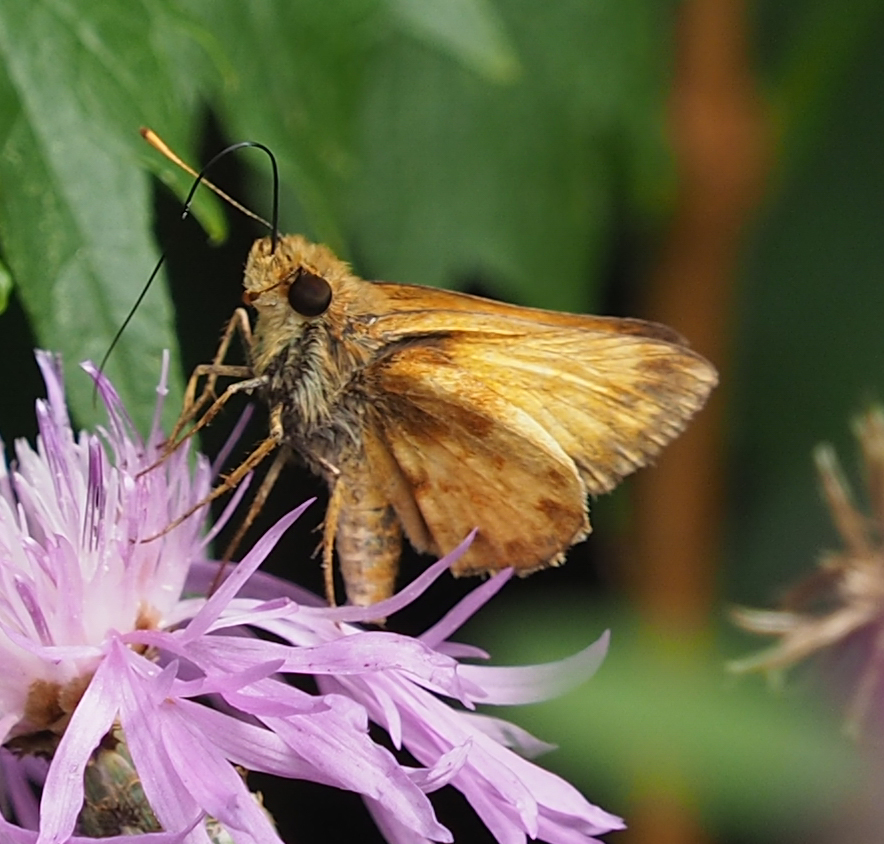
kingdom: Animalia
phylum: Arthropoda
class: Insecta
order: Lepidoptera
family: Hesperiidae
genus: Lon
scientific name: Lon zabulon
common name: Zabulon skipper
